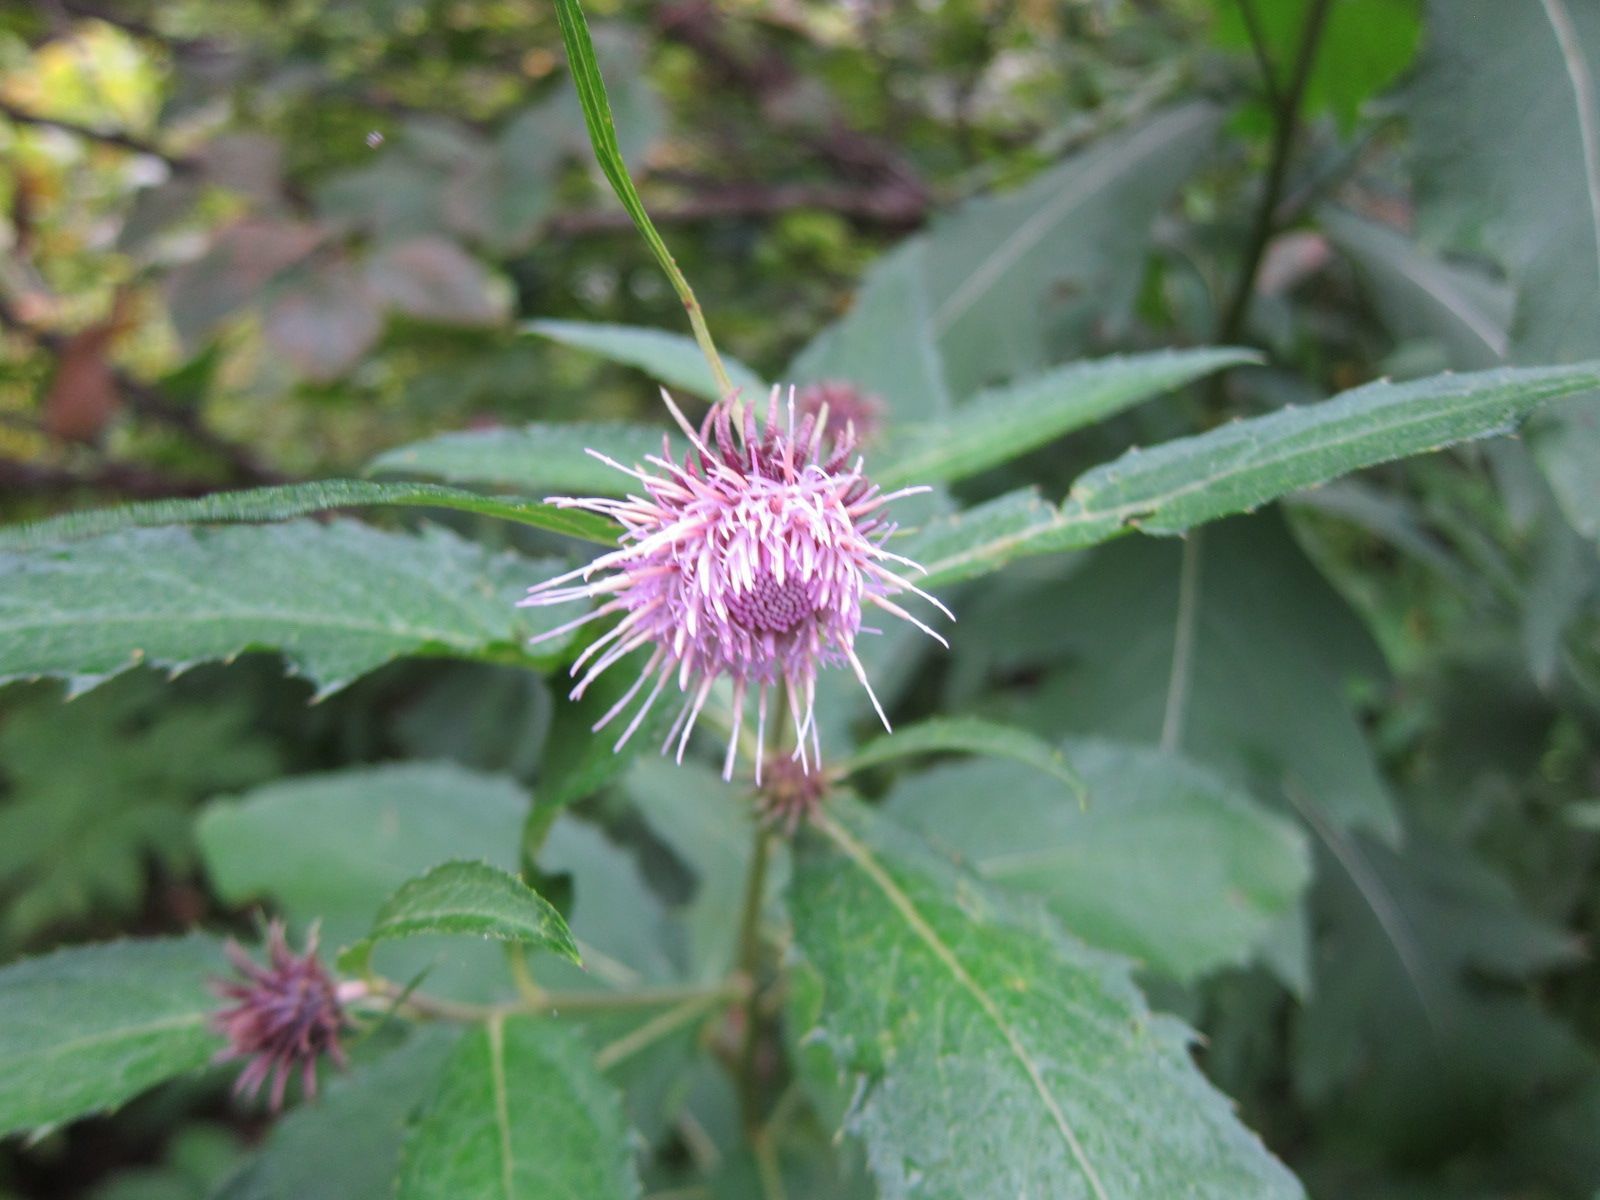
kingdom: Plantae
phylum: Tracheophyta
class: Magnoliopsida
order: Asterales
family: Asteraceae
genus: Cirsium
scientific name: Cirsium otayae
